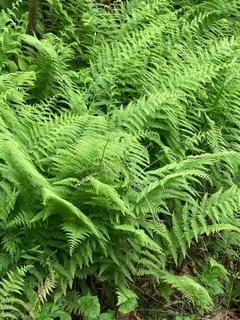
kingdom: Plantae
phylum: Tracheophyta
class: Polypodiopsida
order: Polypodiales
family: Dennstaedtiaceae
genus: Sitobolium
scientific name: Sitobolium punctilobum
